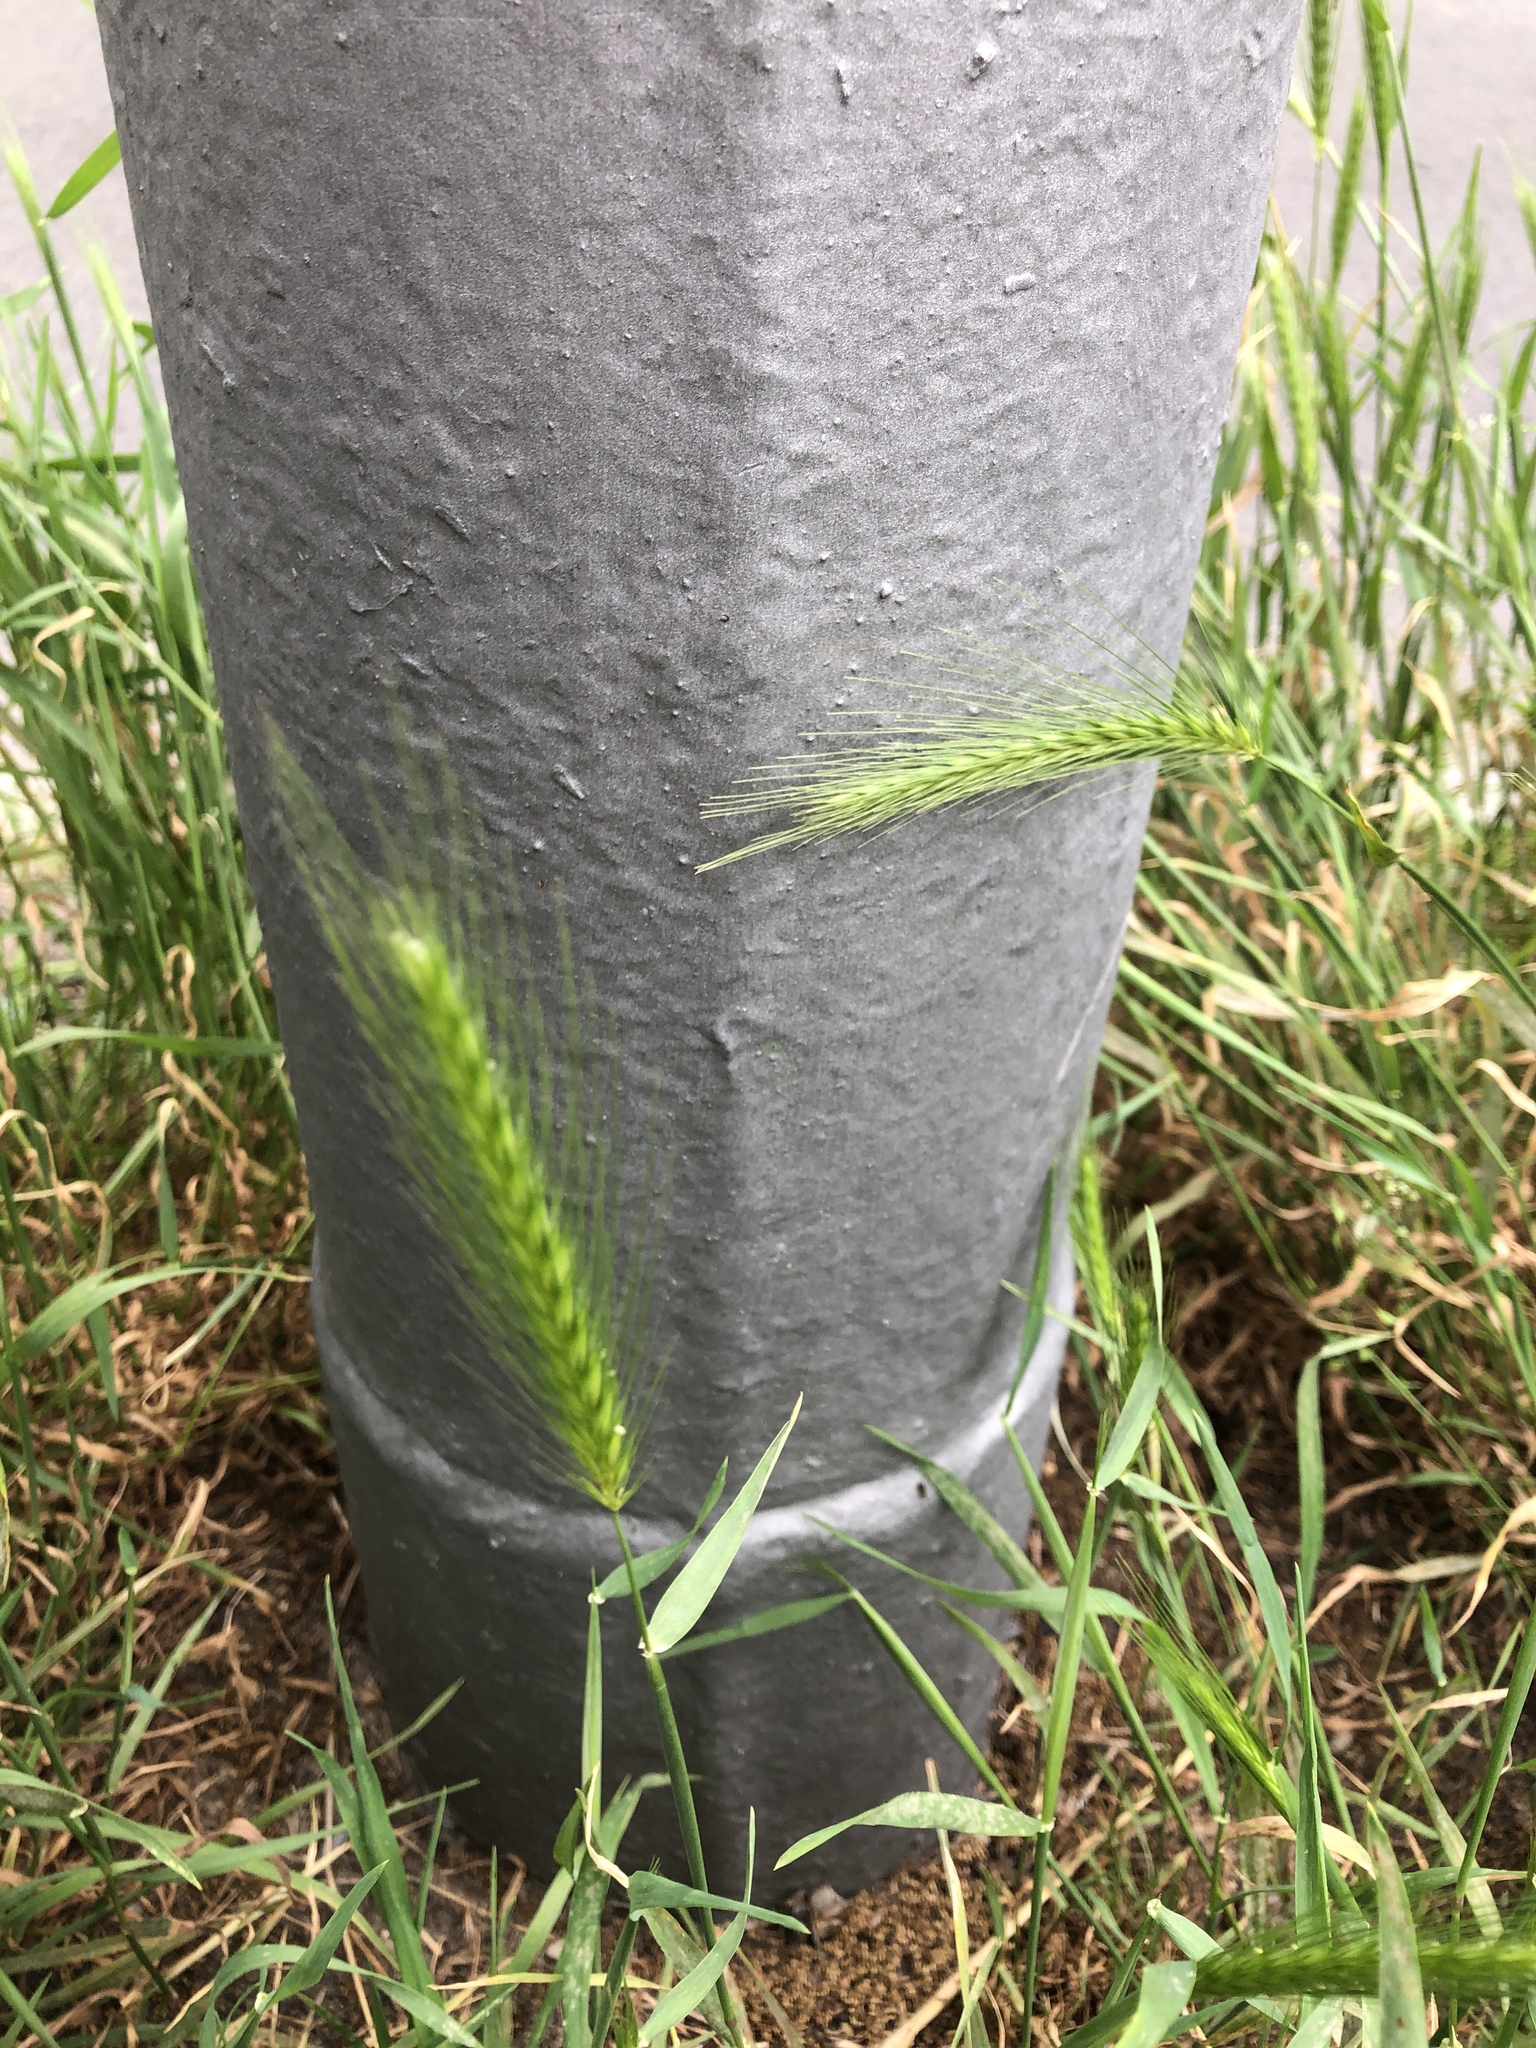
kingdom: Plantae
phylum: Tracheophyta
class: Liliopsida
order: Poales
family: Poaceae
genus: Hordeum
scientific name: Hordeum murinum
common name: Wall barley
